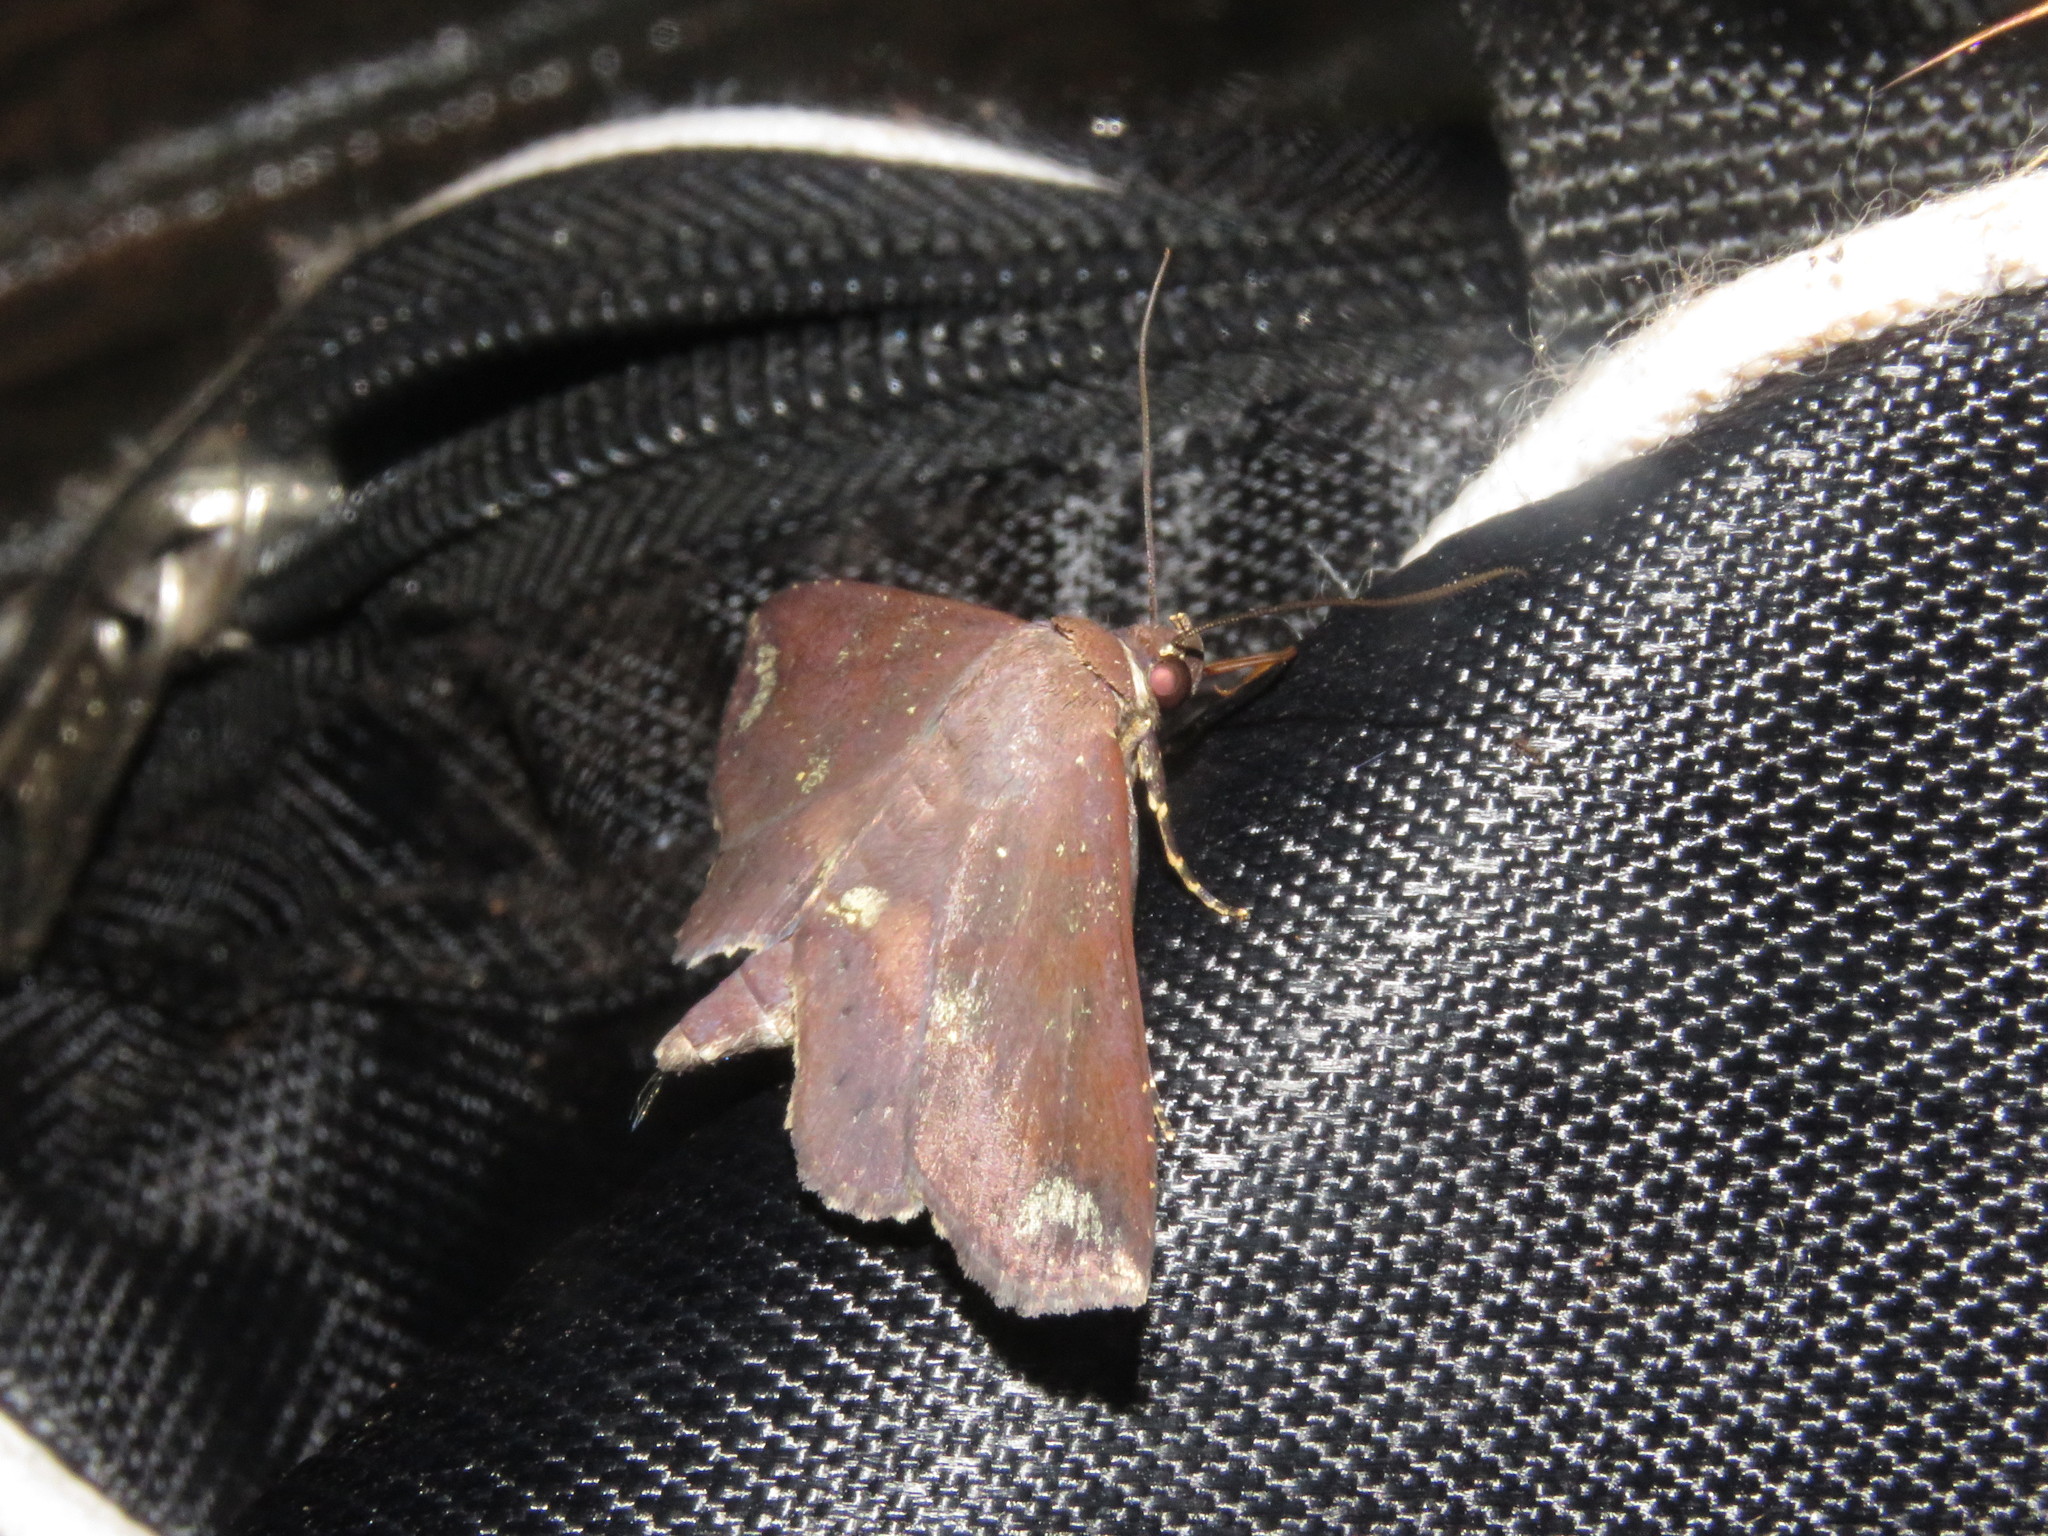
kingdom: Animalia
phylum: Arthropoda
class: Insecta
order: Lepidoptera
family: Erebidae
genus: Agyra
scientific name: Agyra marchandi
